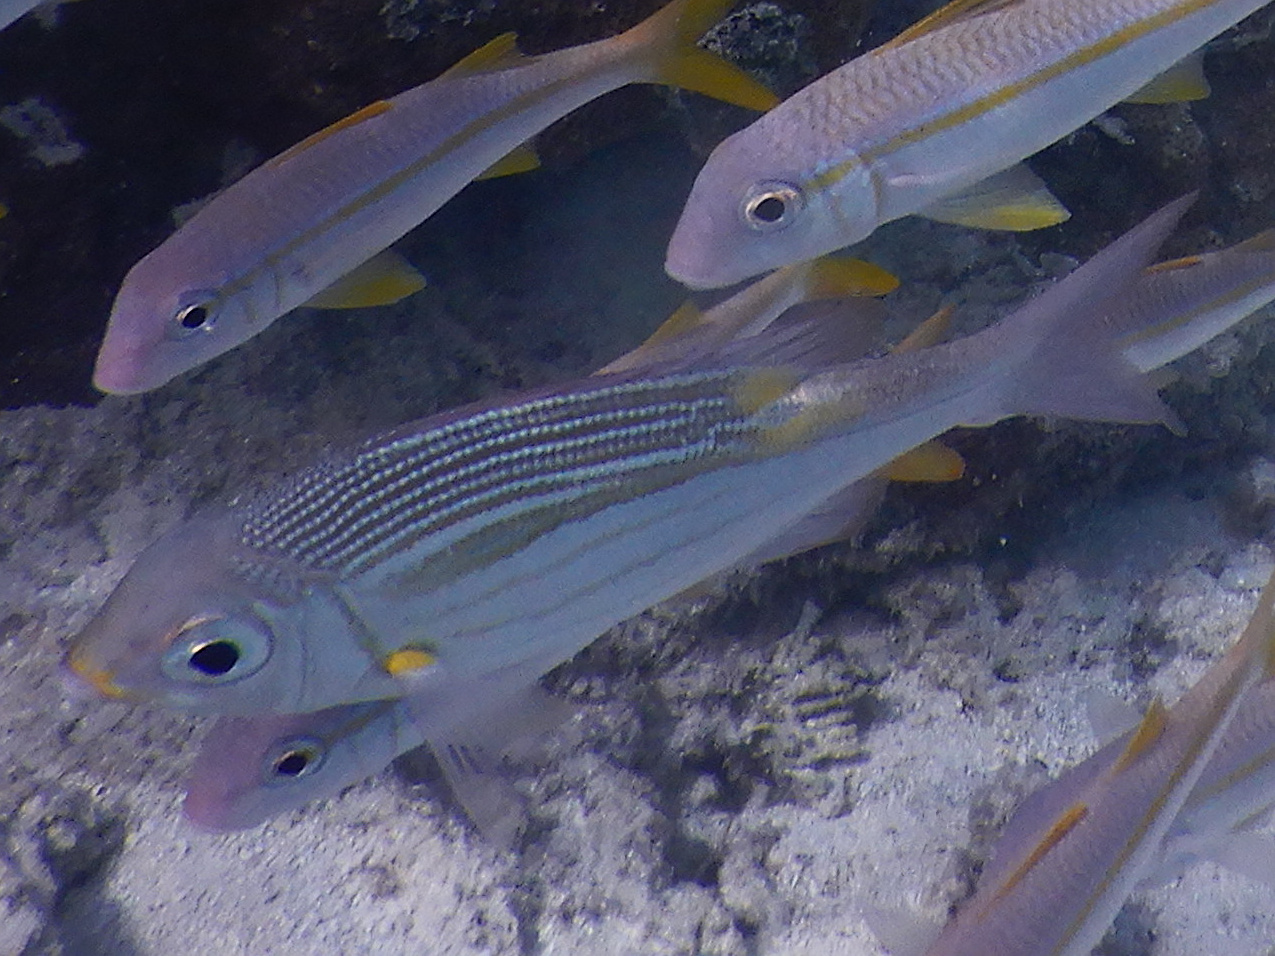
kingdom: Animalia
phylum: Chordata
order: Perciformes
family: Lethrinidae
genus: Gnathodentex
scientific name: Gnathodentex aureolineatus
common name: Gold-lined sea bream
